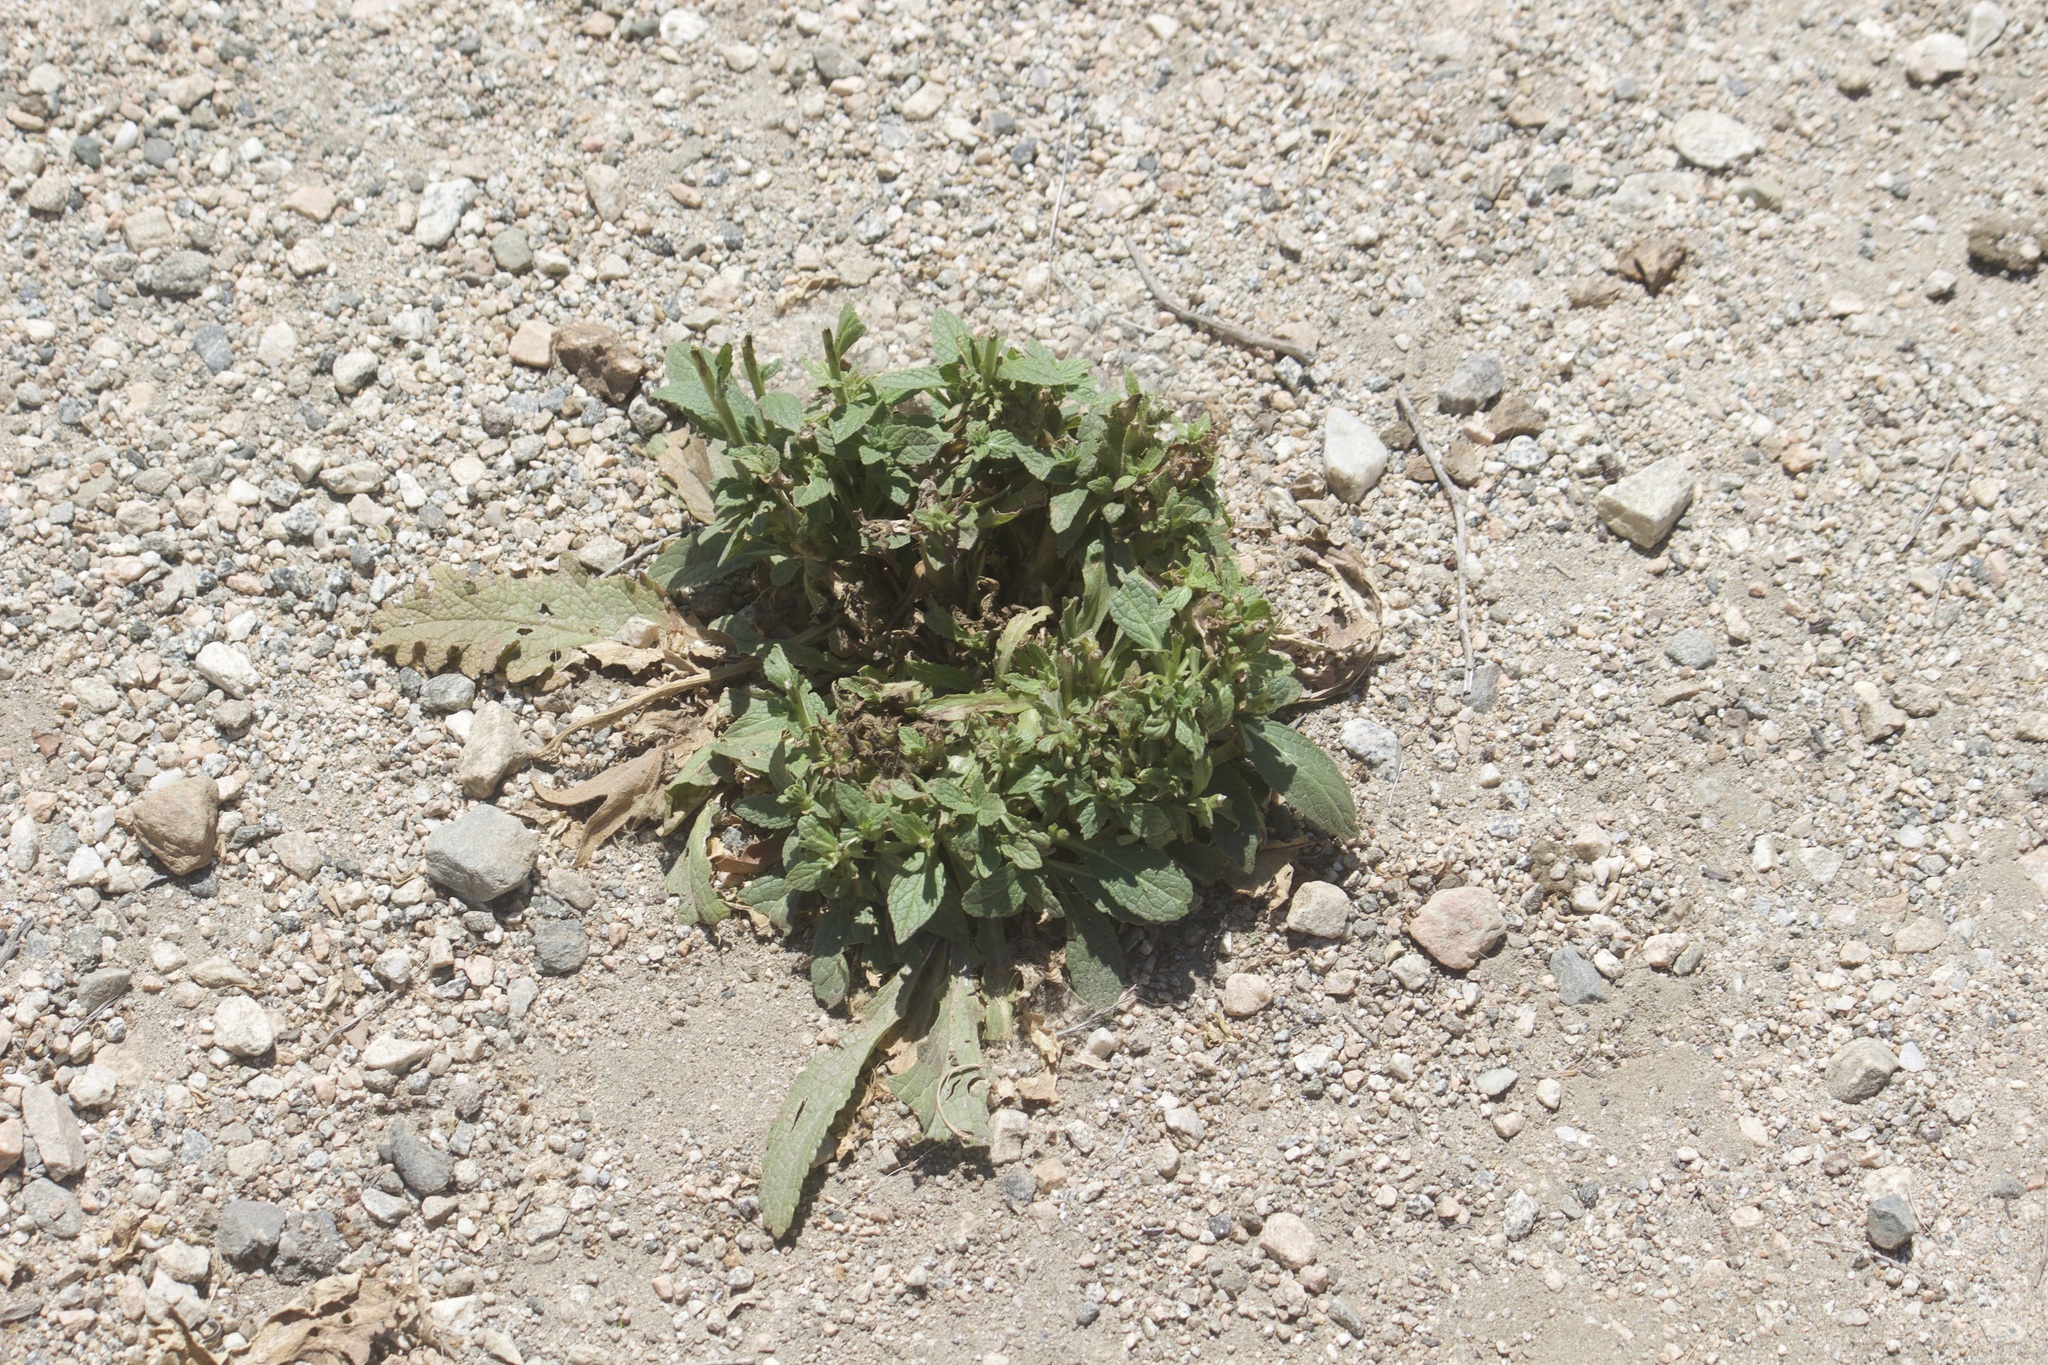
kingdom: Plantae
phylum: Tracheophyta
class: Magnoliopsida
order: Lamiales
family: Scrophulariaceae
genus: Verbascum
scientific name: Verbascum
